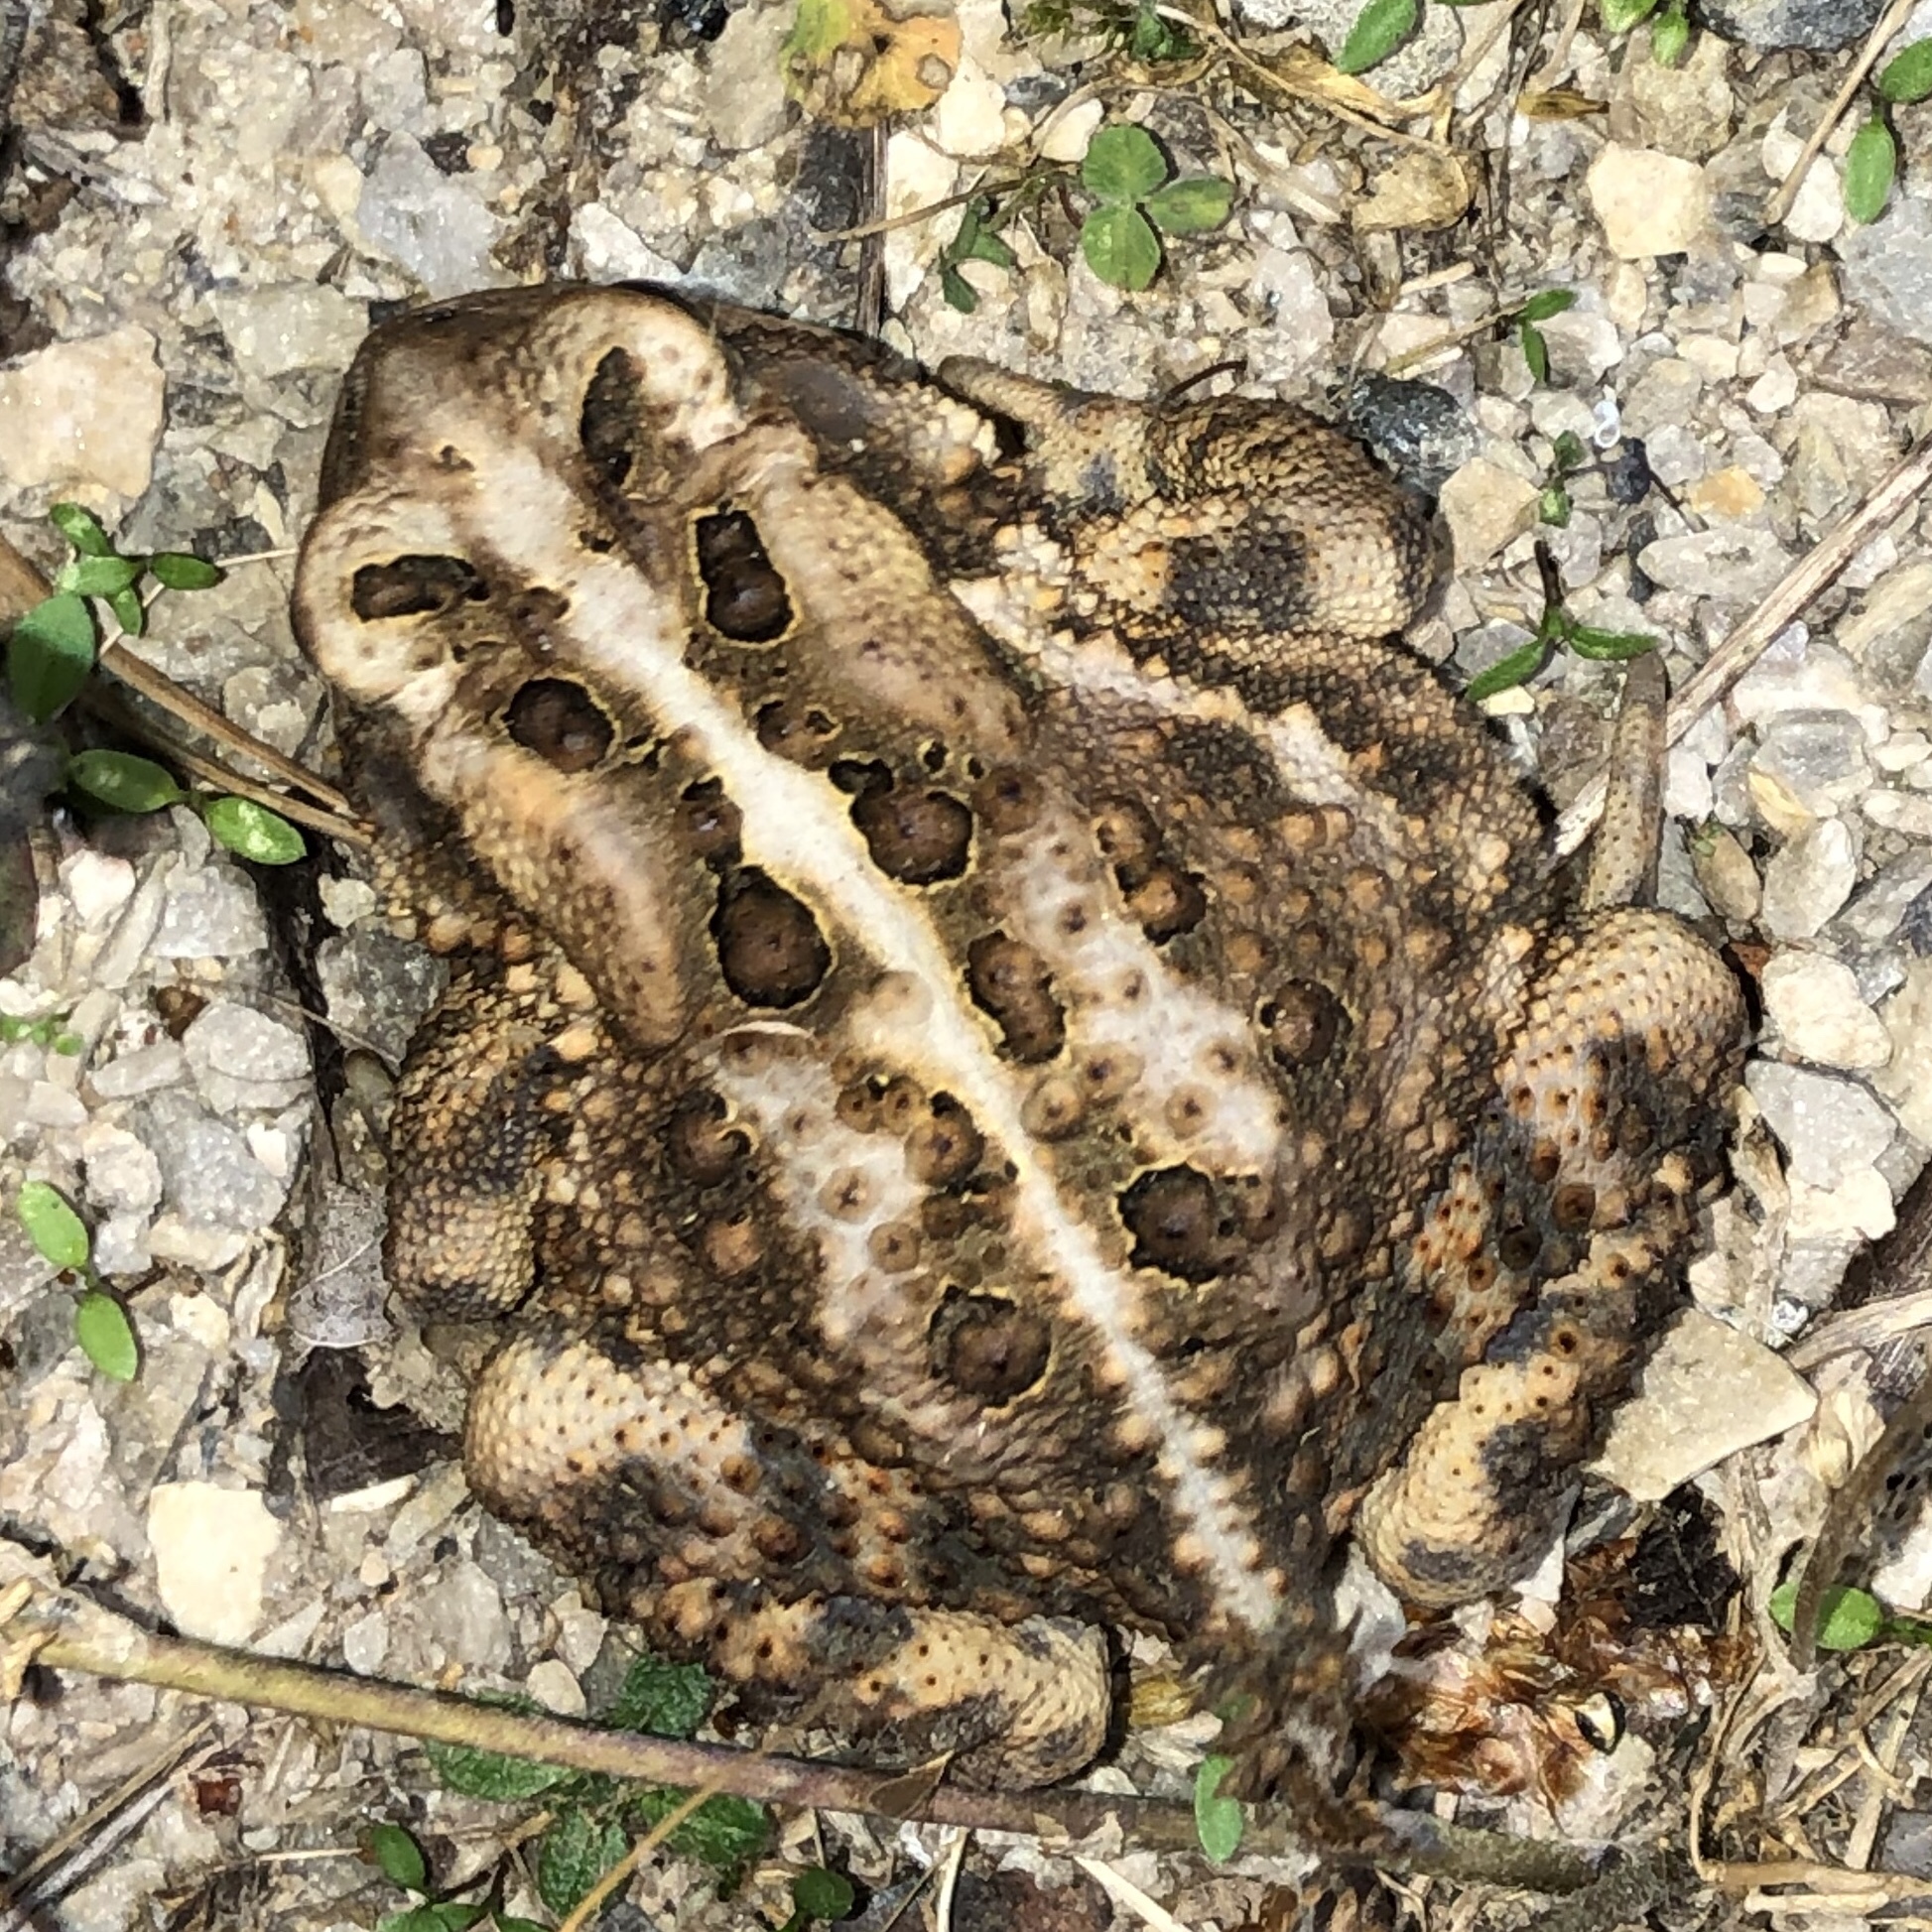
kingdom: Animalia
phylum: Chordata
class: Amphibia
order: Anura
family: Bufonidae
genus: Anaxyrus
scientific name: Anaxyrus americanus
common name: American toad
